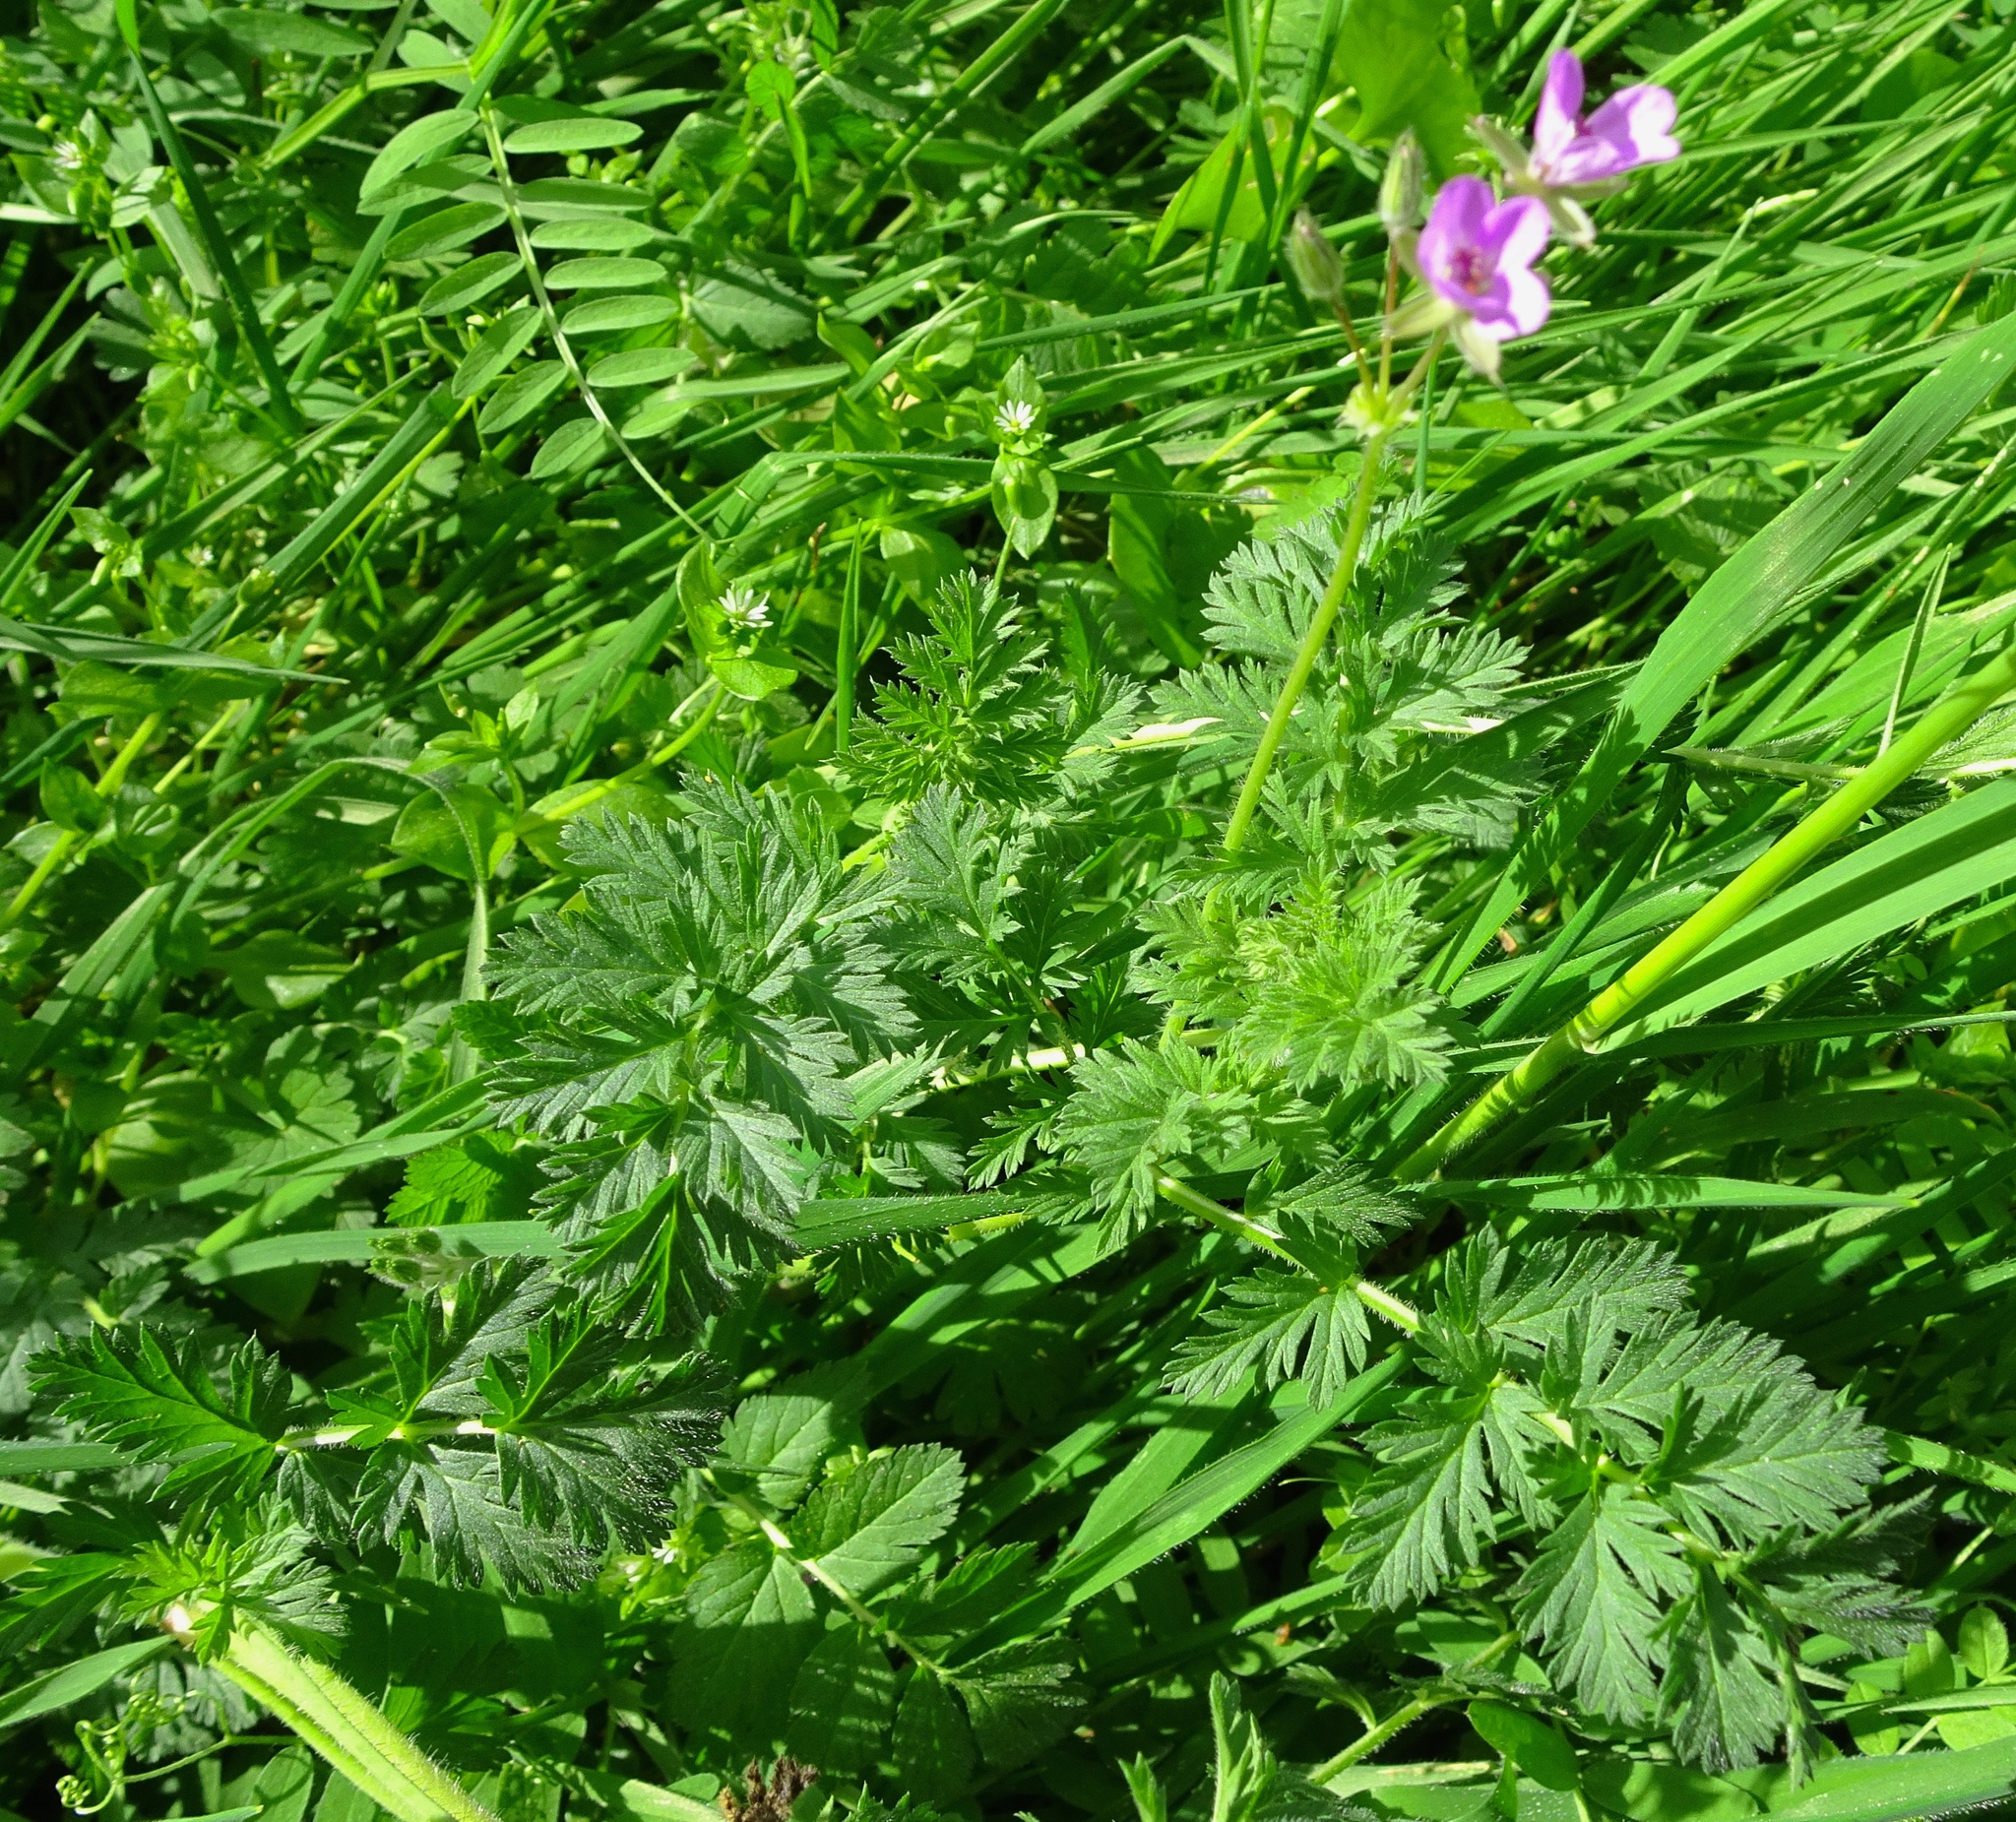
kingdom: Plantae
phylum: Tracheophyta
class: Magnoliopsida
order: Geraniales
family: Geraniaceae
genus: Erodium
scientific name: Erodium cicutarium
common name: Common stork's-bill
